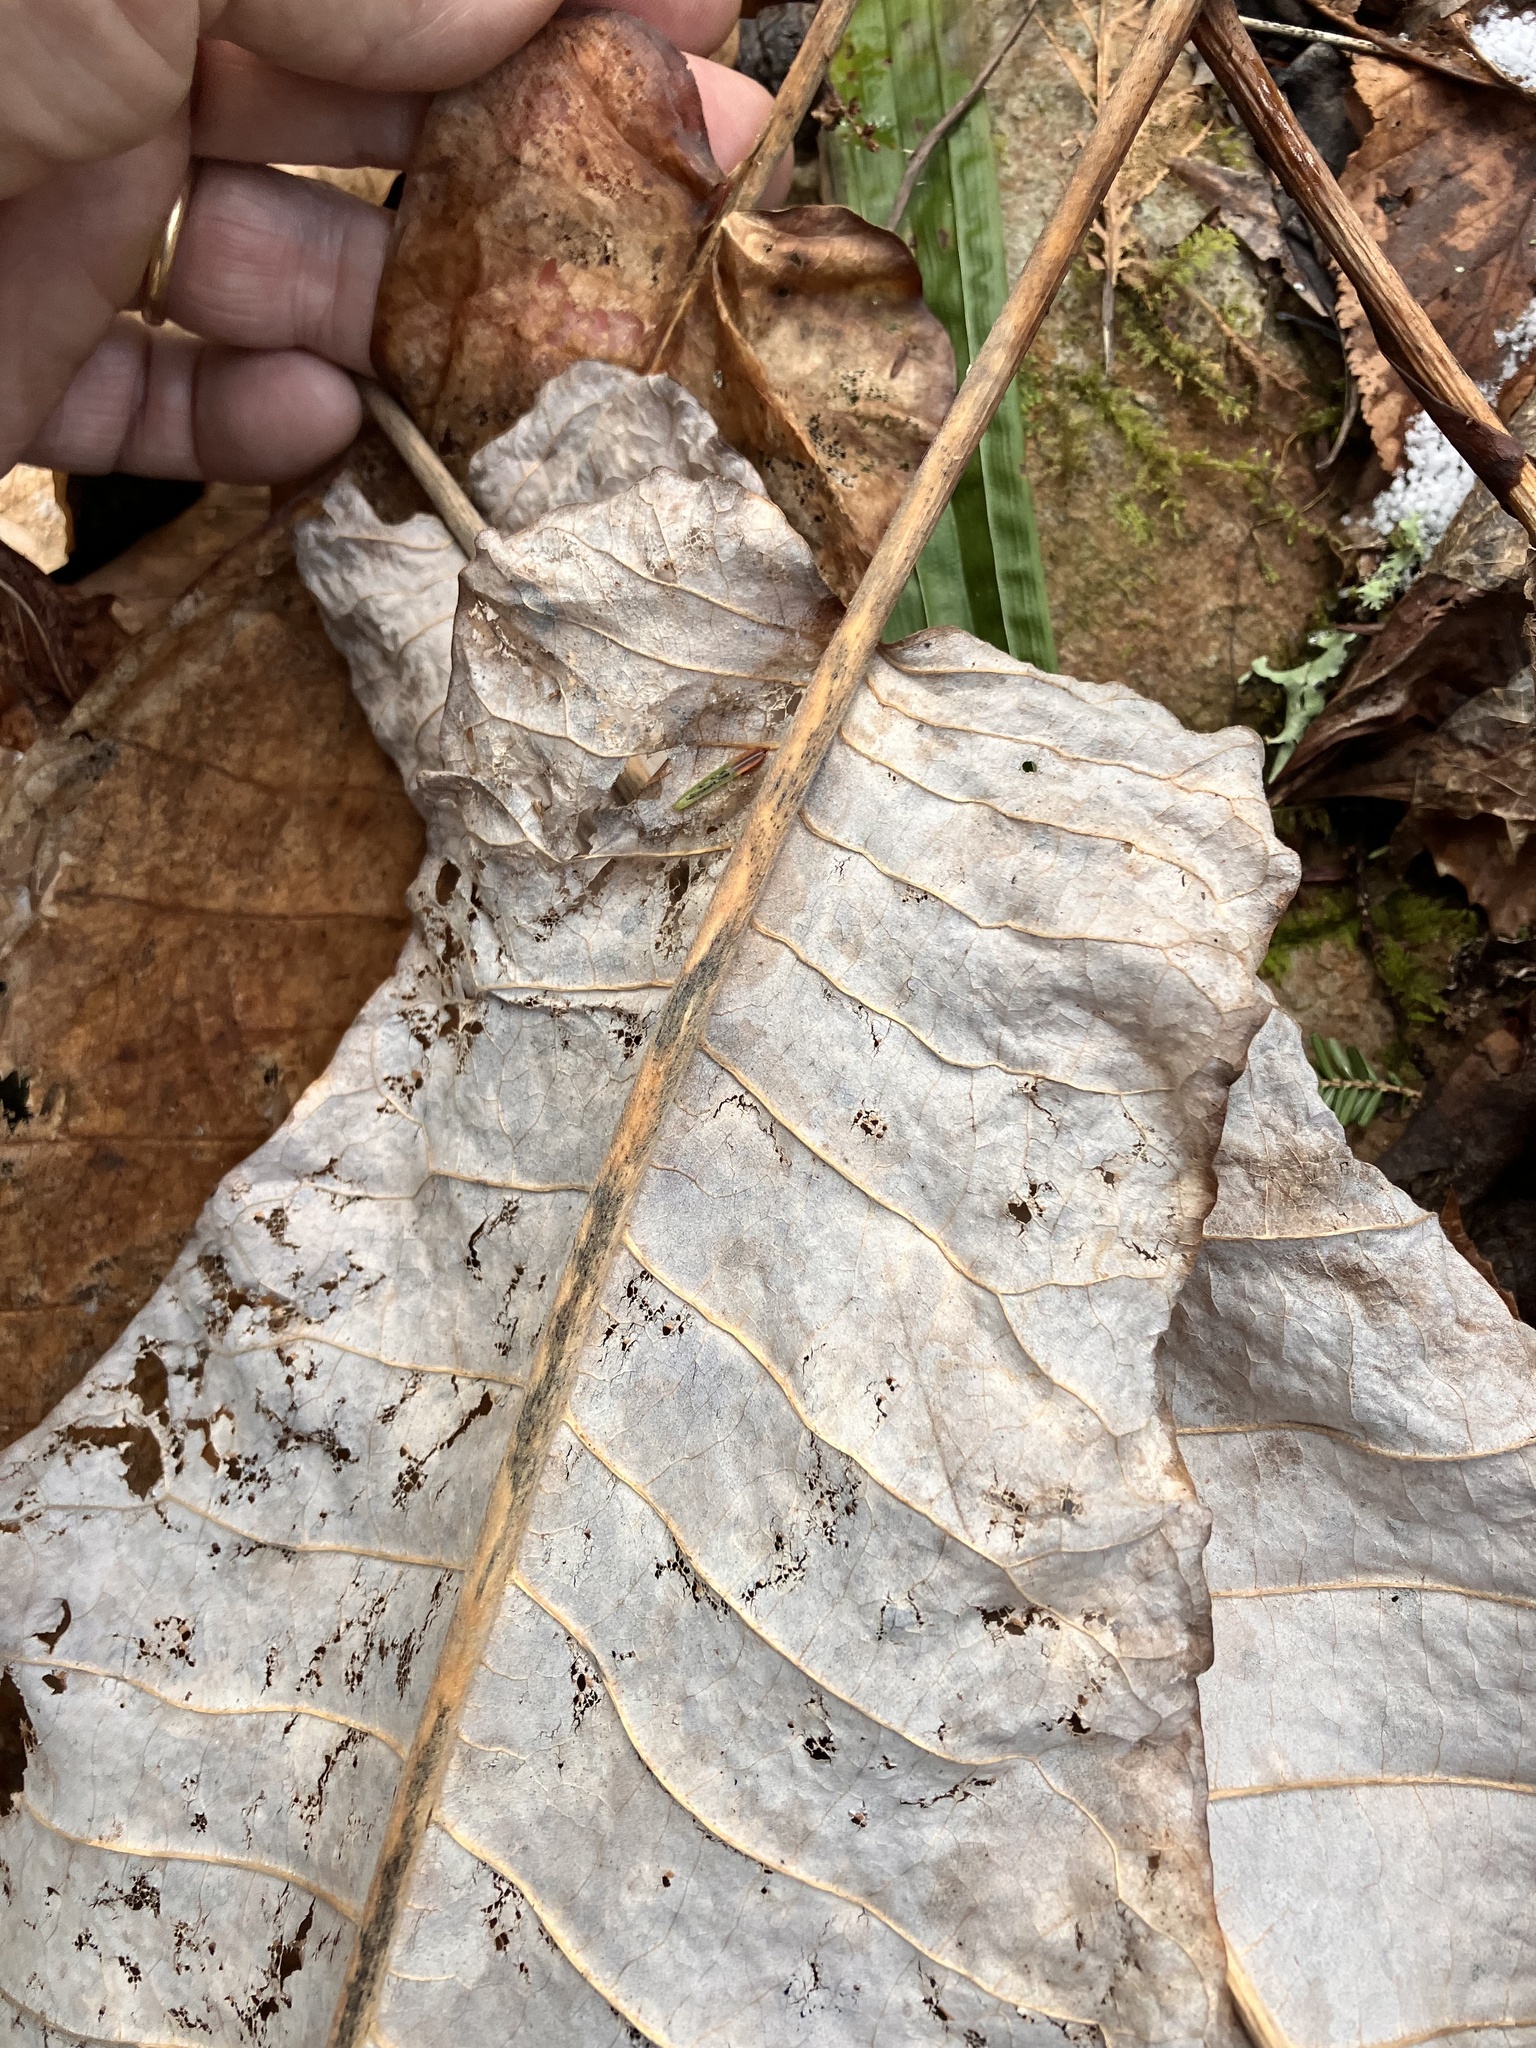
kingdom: Plantae
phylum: Tracheophyta
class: Magnoliopsida
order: Magnoliales
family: Magnoliaceae
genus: Magnolia
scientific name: Magnolia macrophylla
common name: Big-leaf magnolia
